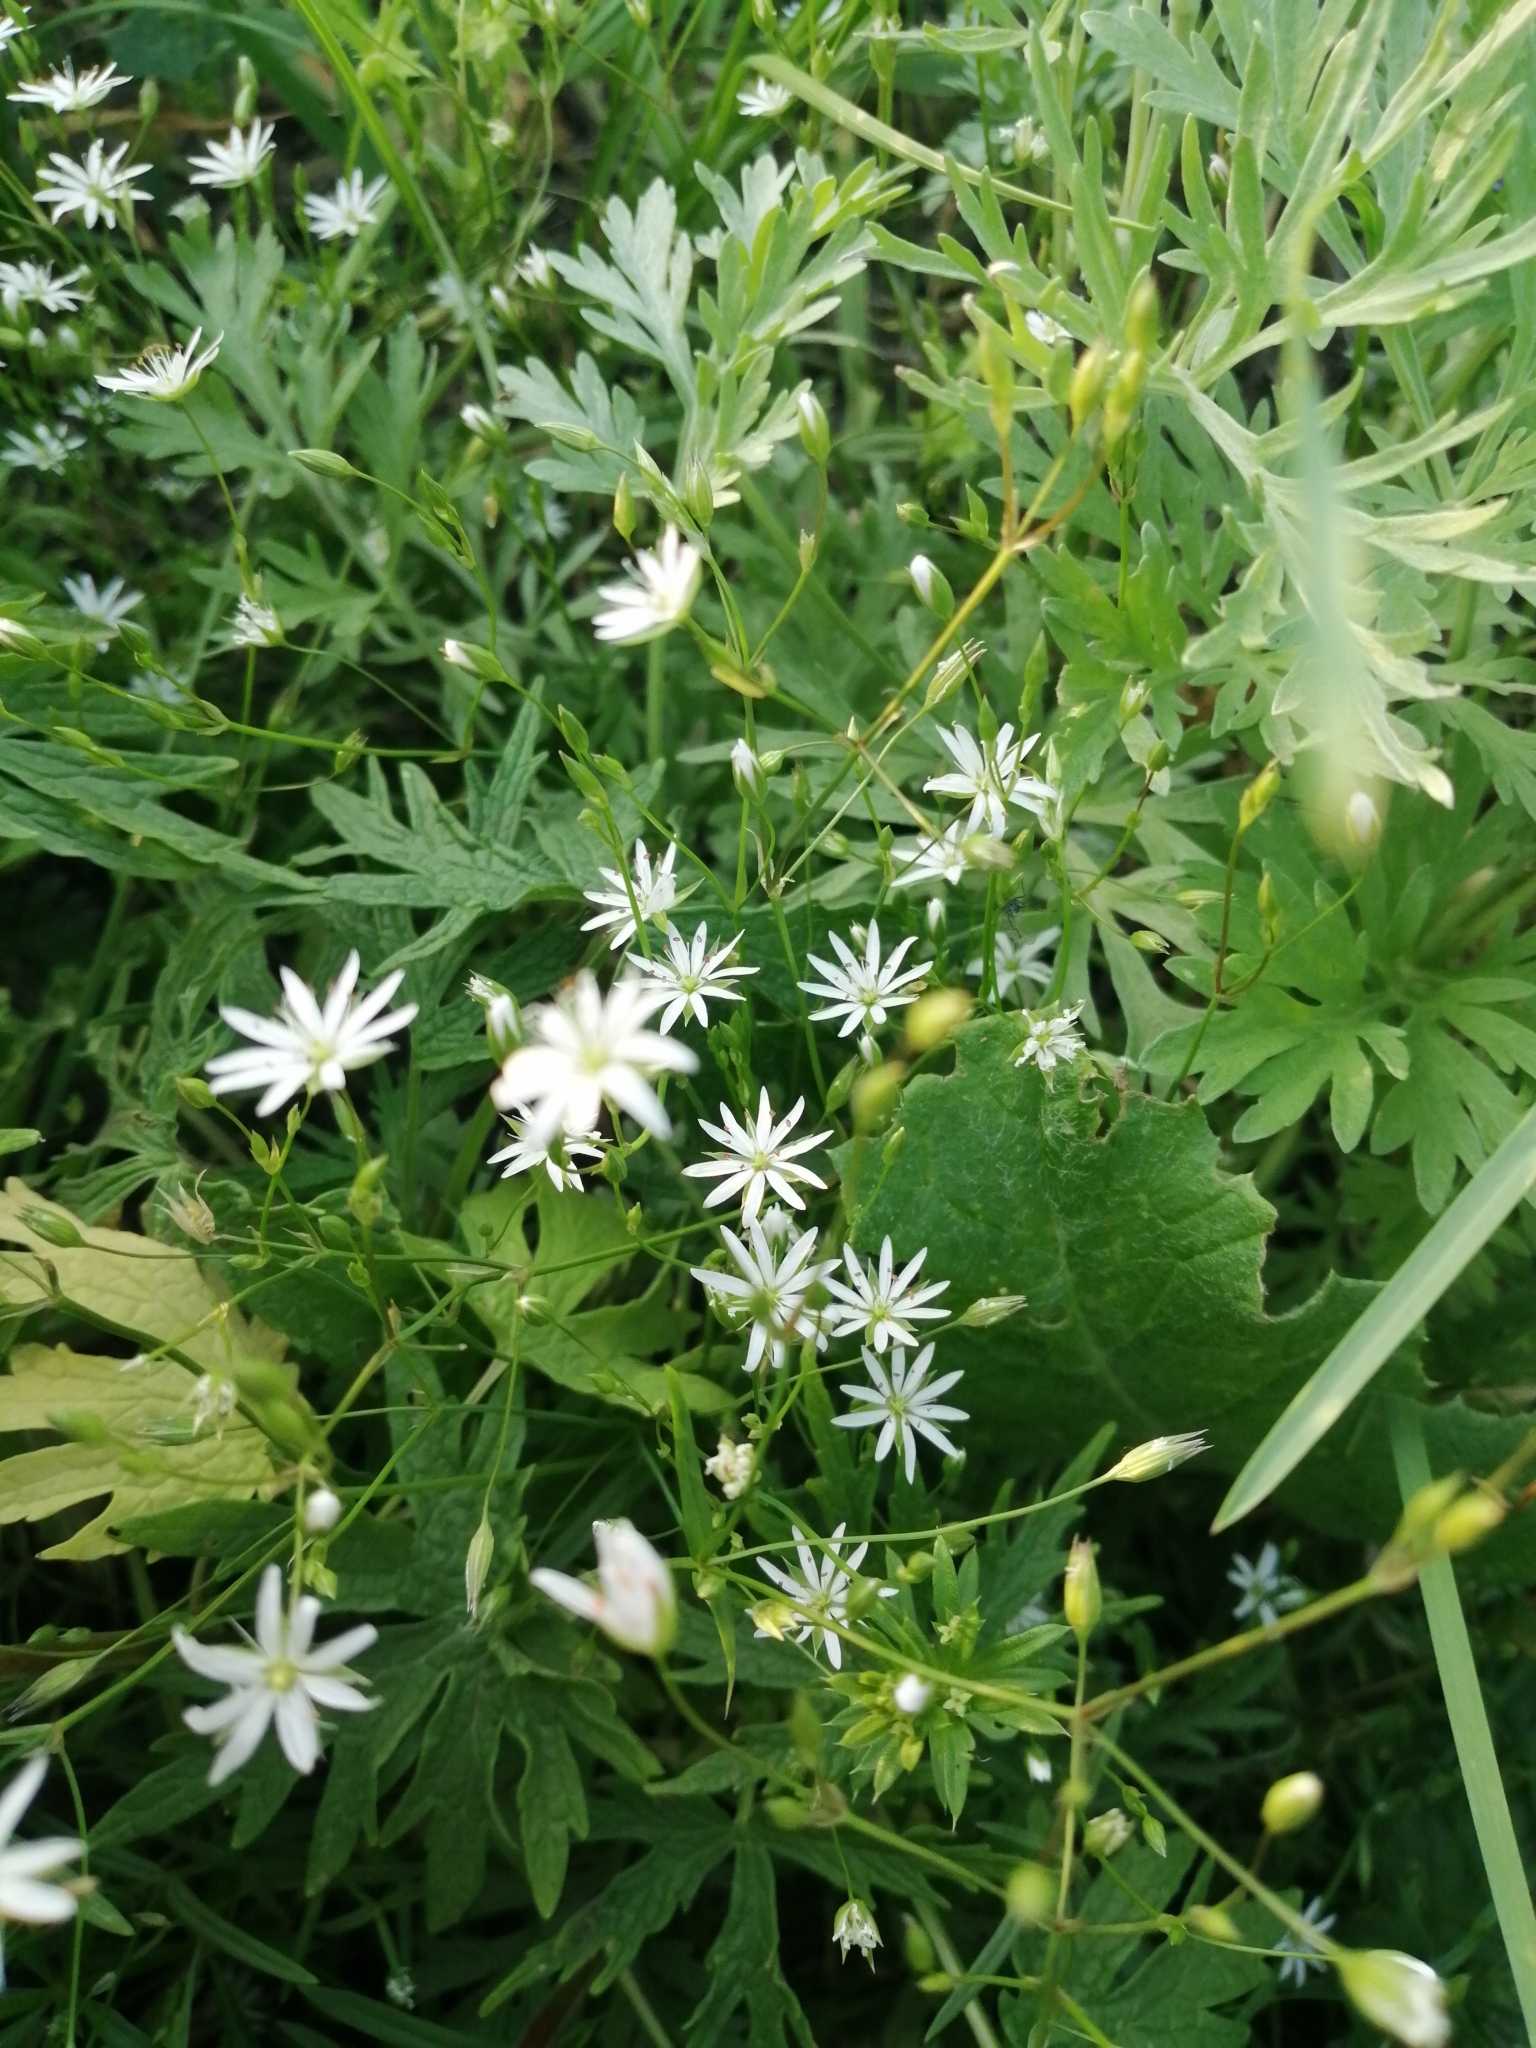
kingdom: Plantae
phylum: Tracheophyta
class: Magnoliopsida
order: Caryophyllales
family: Caryophyllaceae
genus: Stellaria
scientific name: Stellaria graminea
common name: Grass-like starwort
